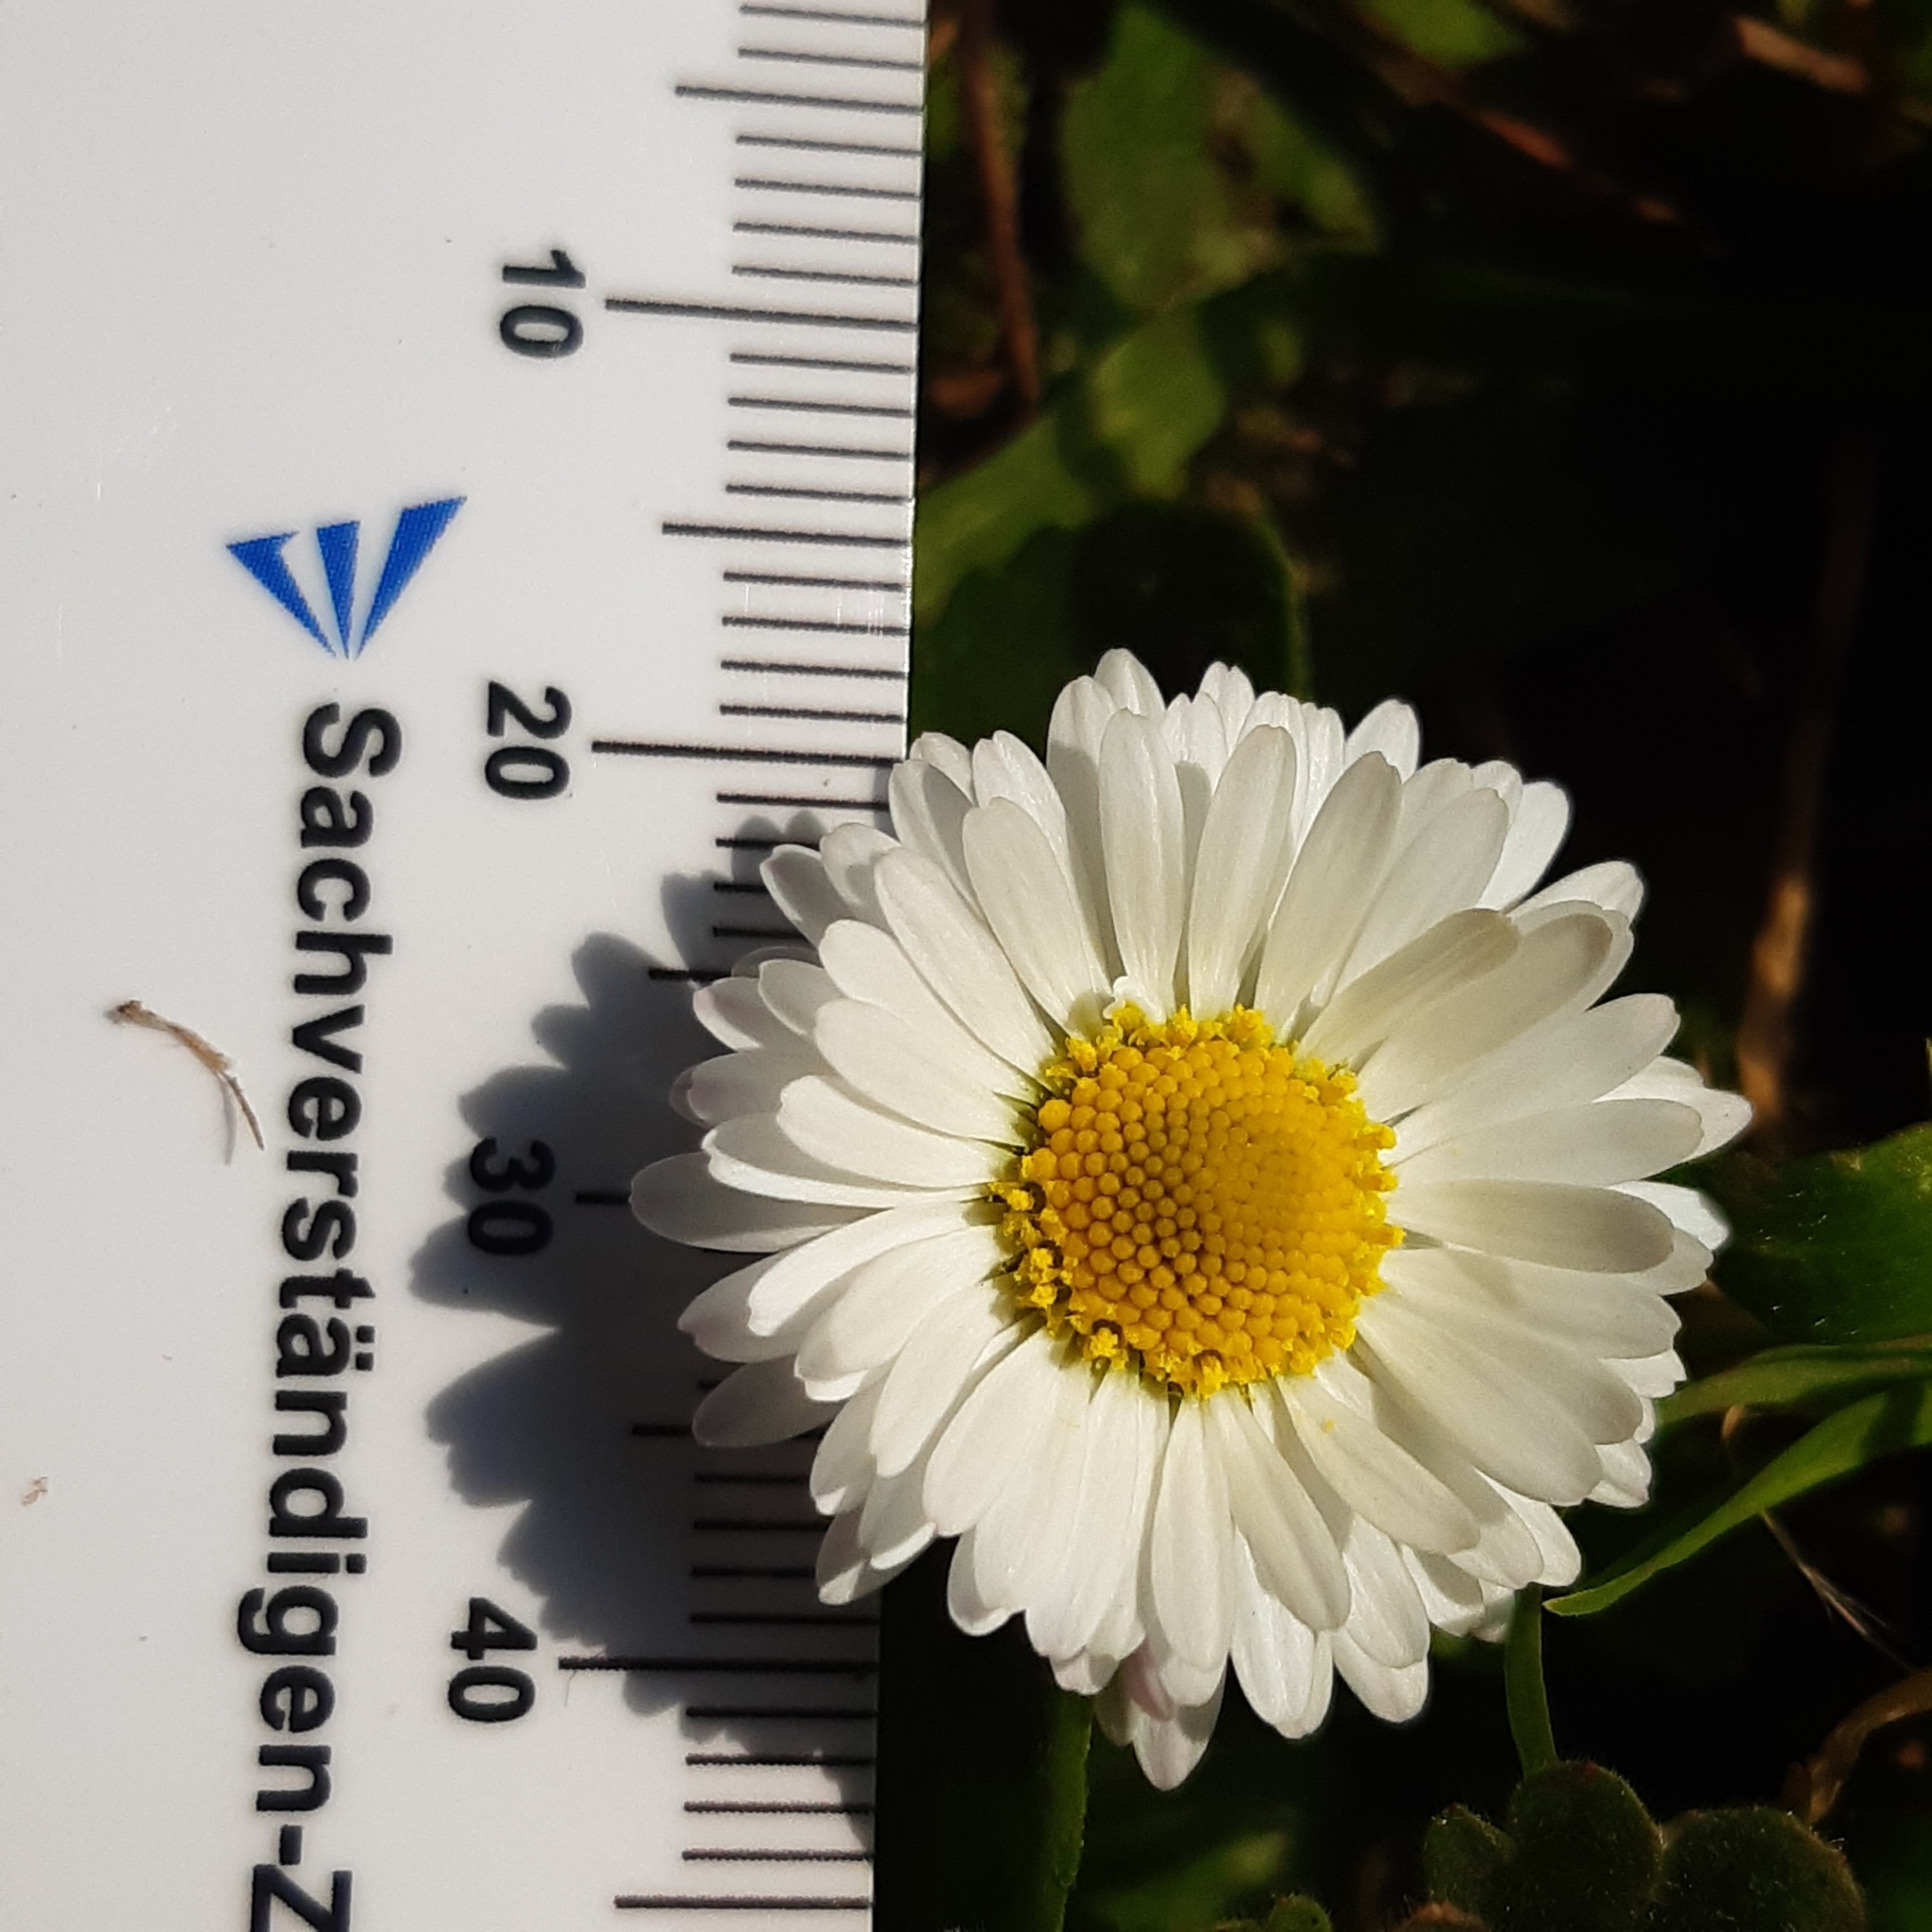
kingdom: Plantae
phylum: Tracheophyta
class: Magnoliopsida
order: Asterales
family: Asteraceae
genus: Bellis
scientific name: Bellis perennis
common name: Lawndaisy
